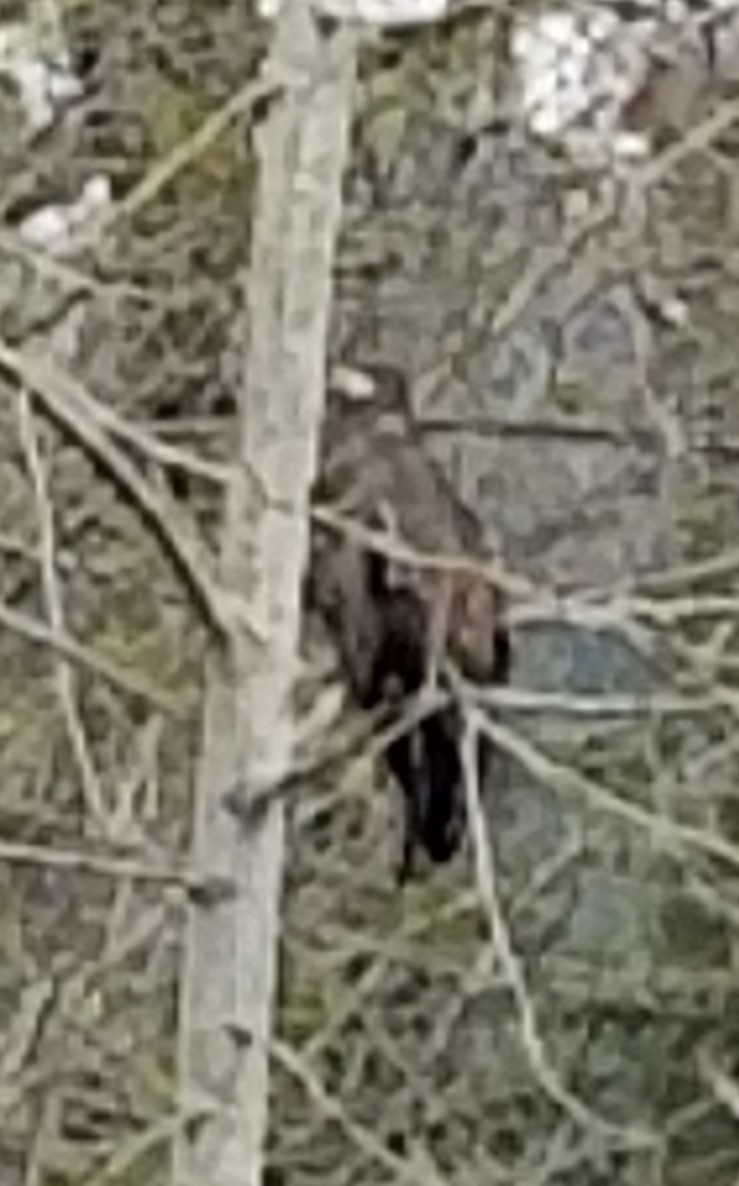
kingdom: Animalia
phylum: Chordata
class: Aves
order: Accipitriformes
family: Accipitridae
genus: Haliaeetus
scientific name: Haliaeetus leucocephalus
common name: Bald eagle
